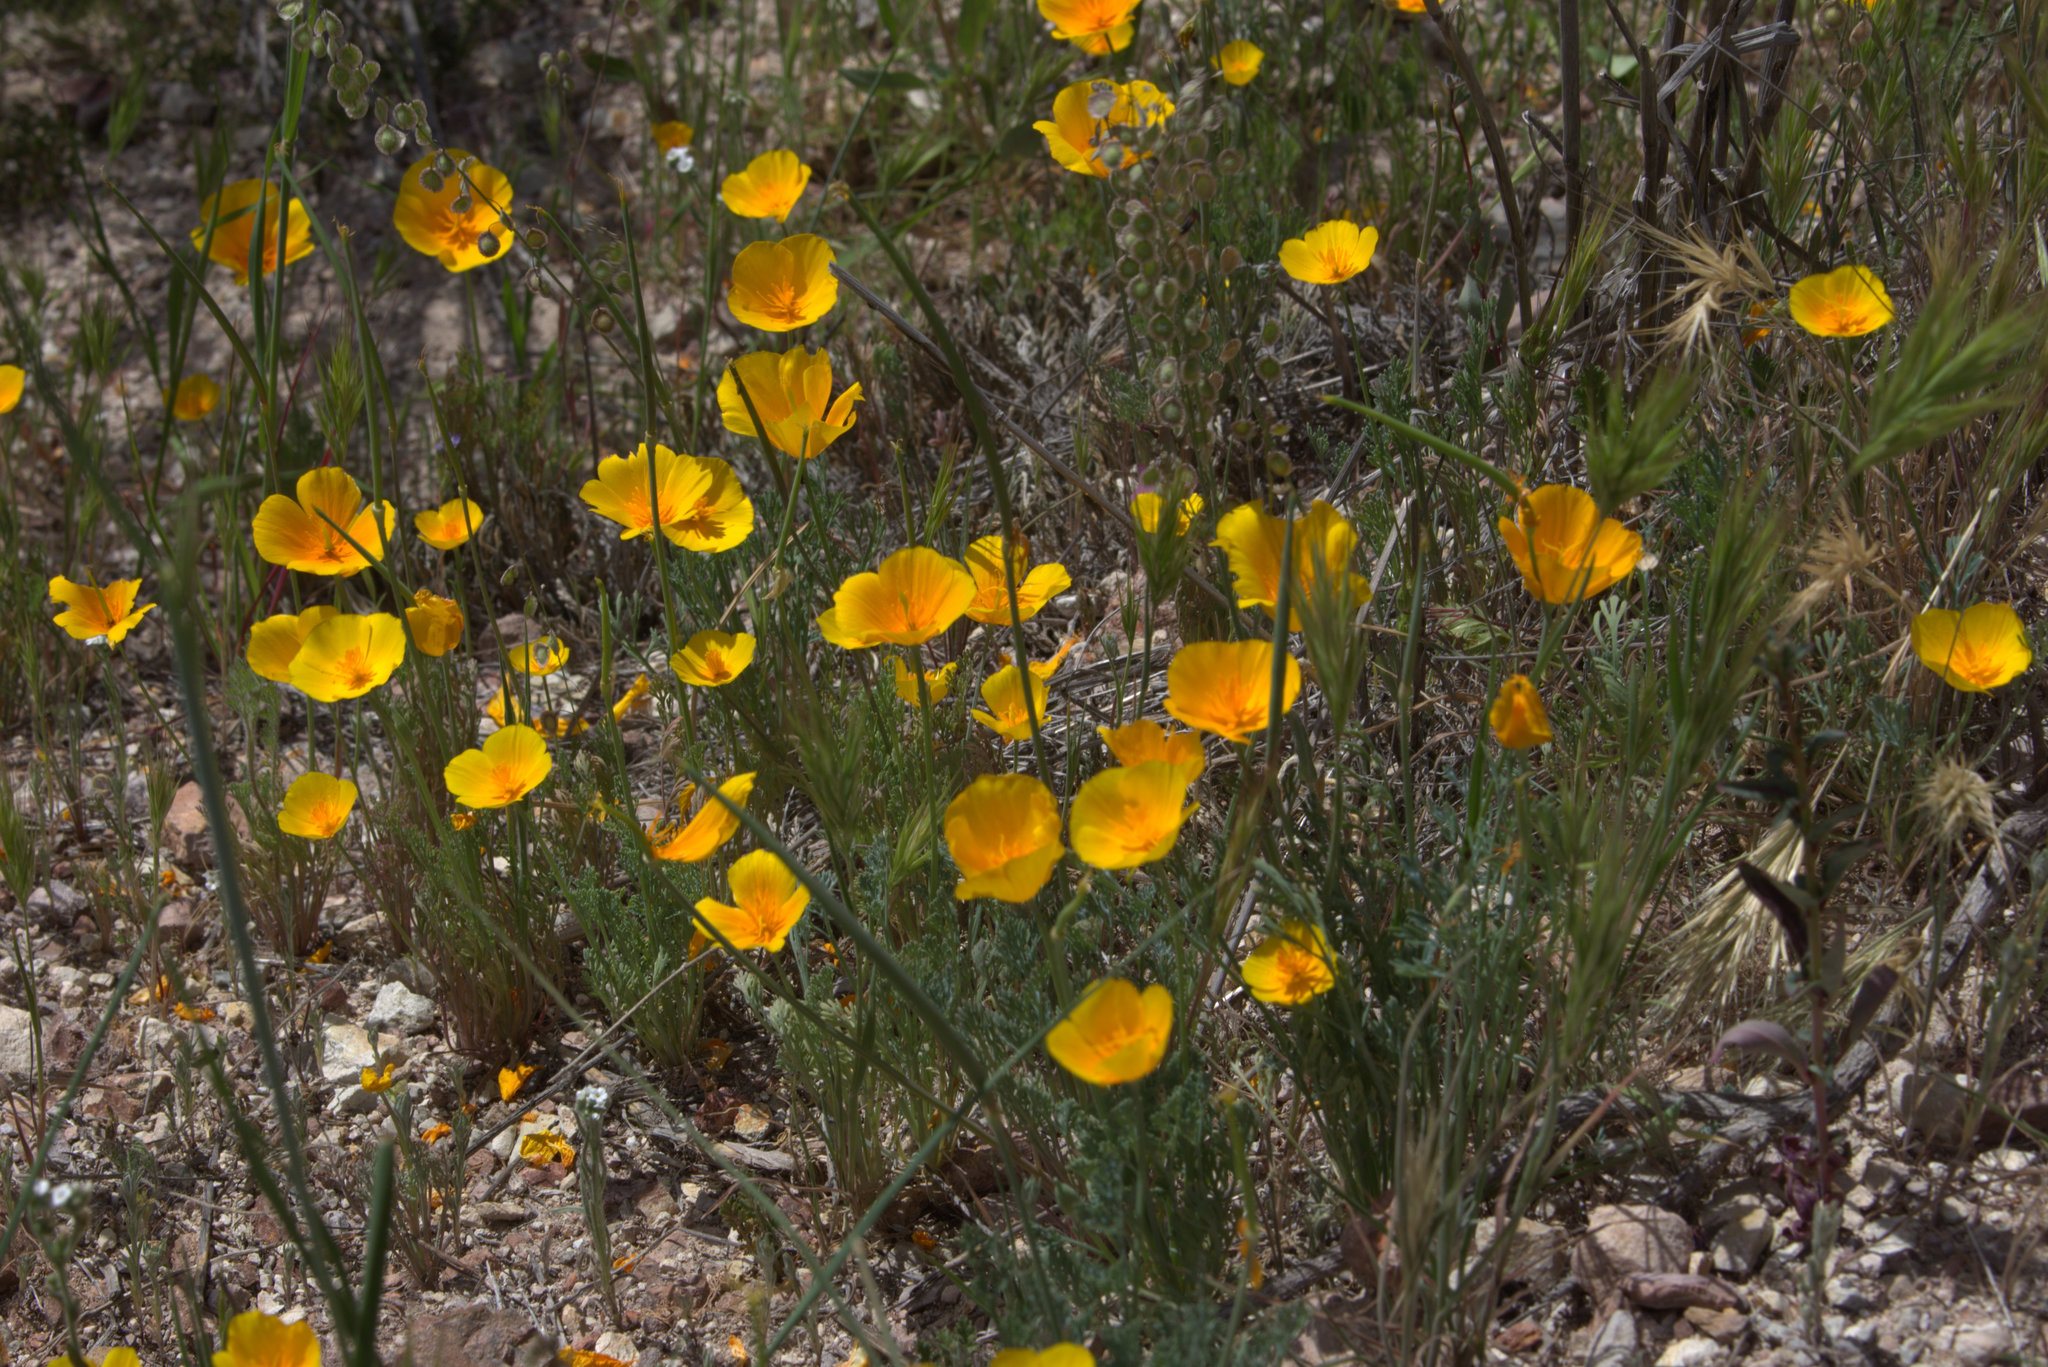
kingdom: Plantae
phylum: Tracheophyta
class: Magnoliopsida
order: Ranunculales
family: Papaveraceae
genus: Eschscholzia
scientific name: Eschscholzia caespitosa
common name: Tufted california-poppy
